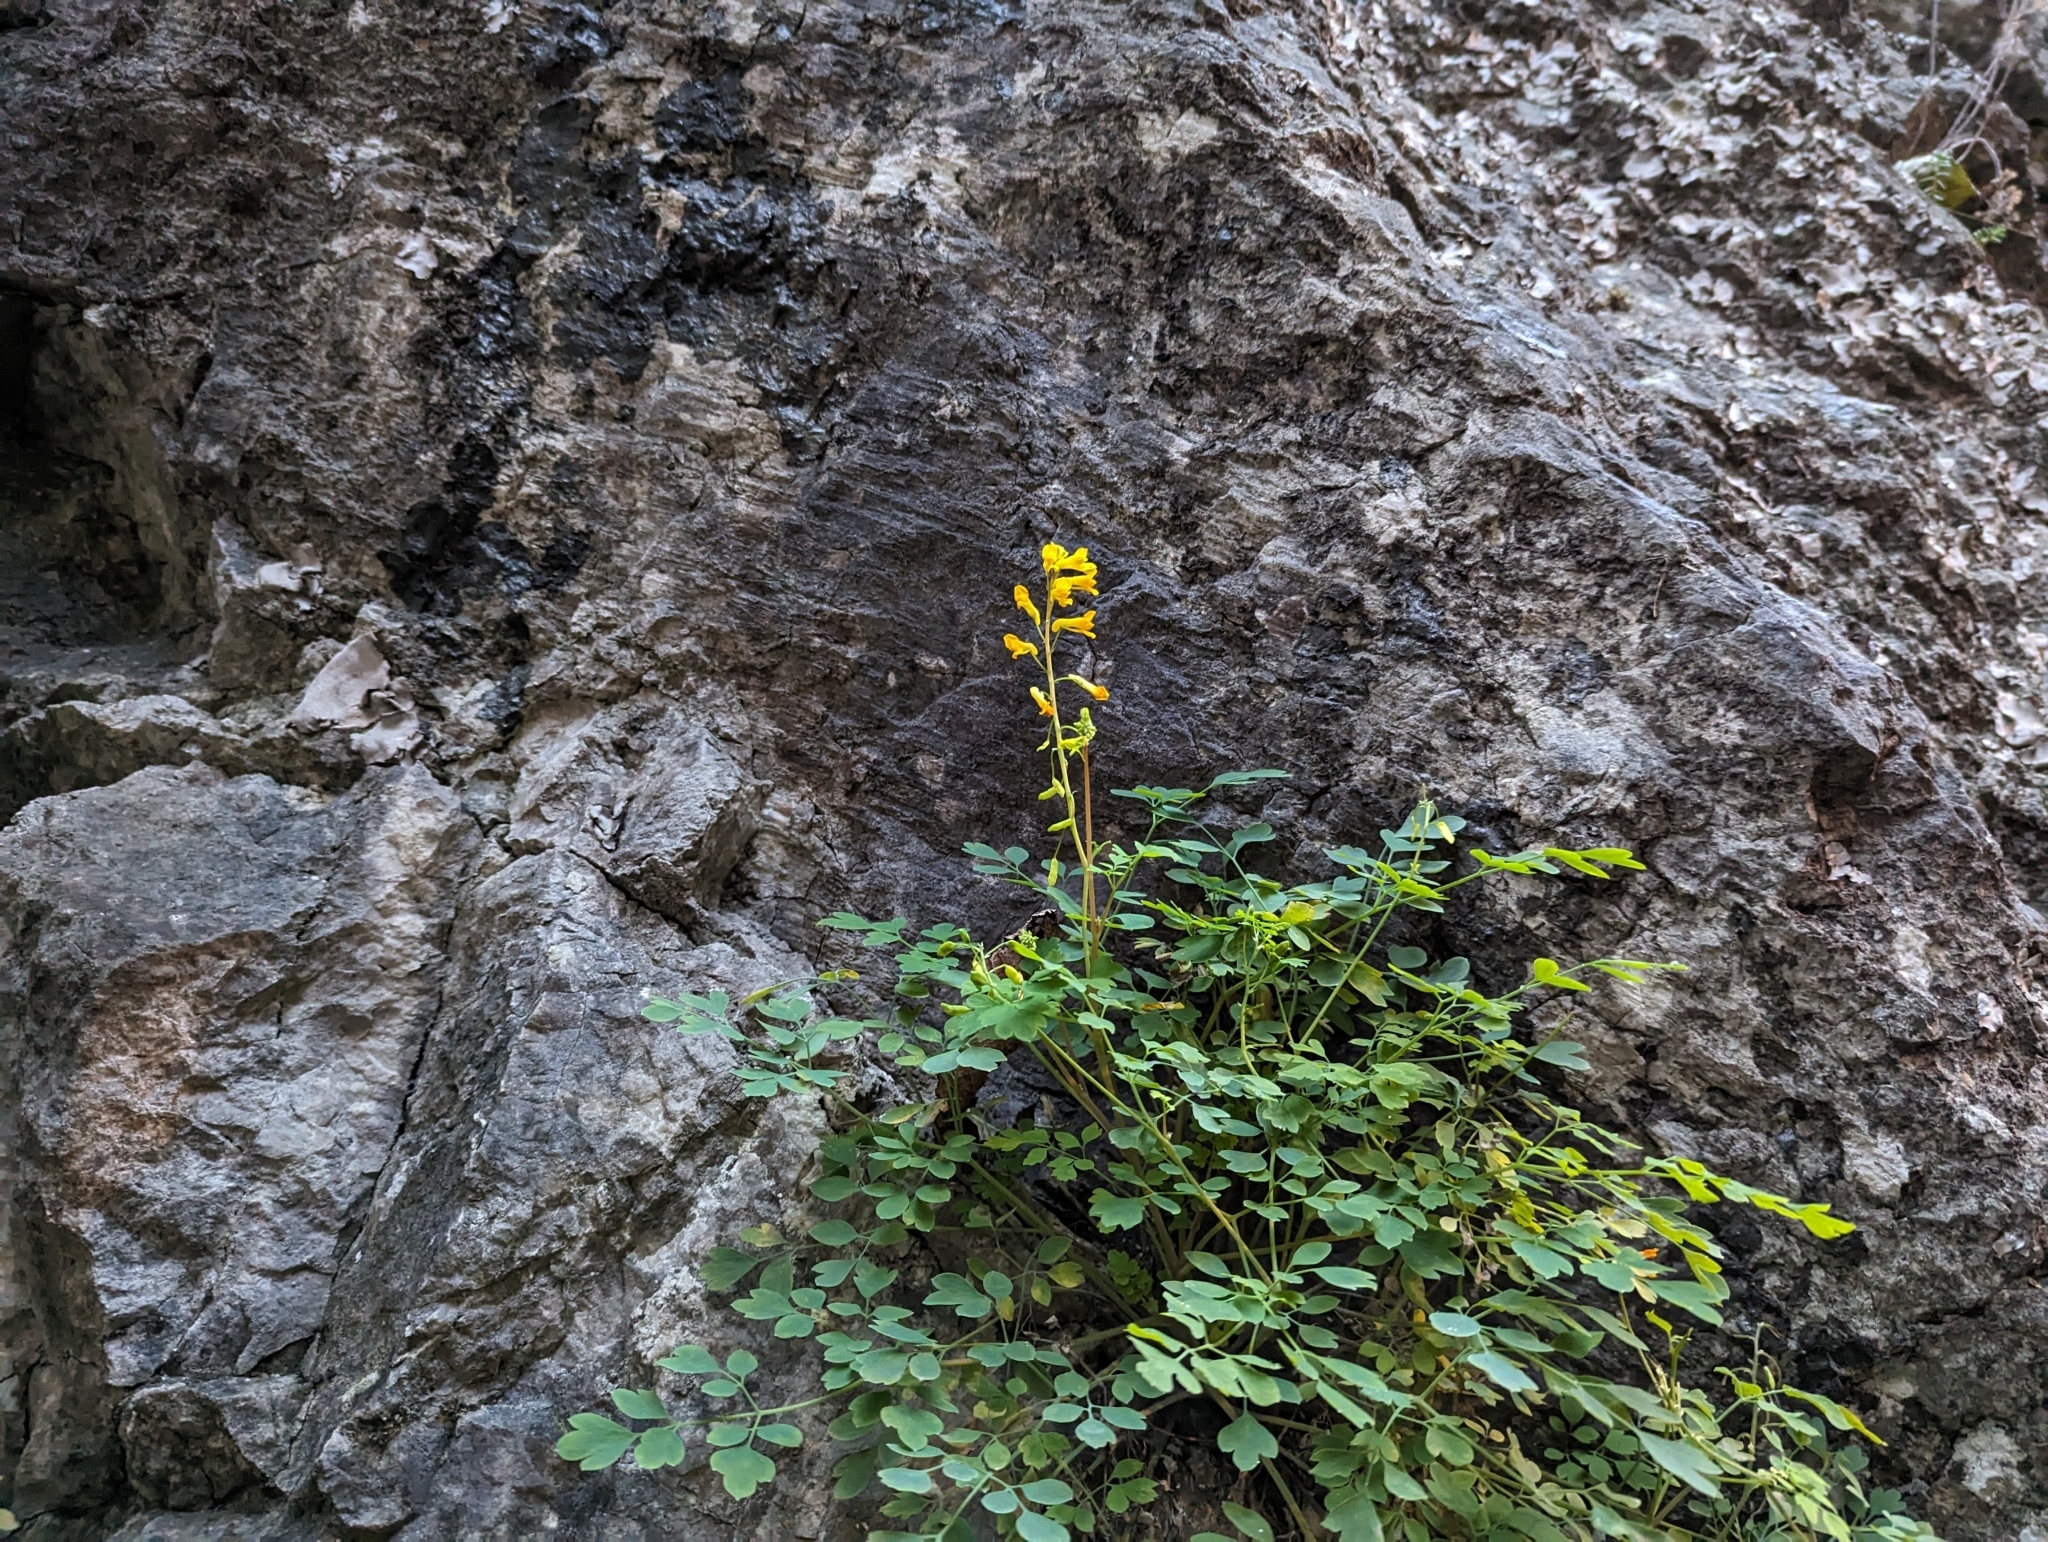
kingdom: Plantae
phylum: Tracheophyta
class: Magnoliopsida
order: Ranunculales
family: Papaveraceae
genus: Pseudofumaria
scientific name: Pseudofumaria lutea
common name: Yellow corydalis
